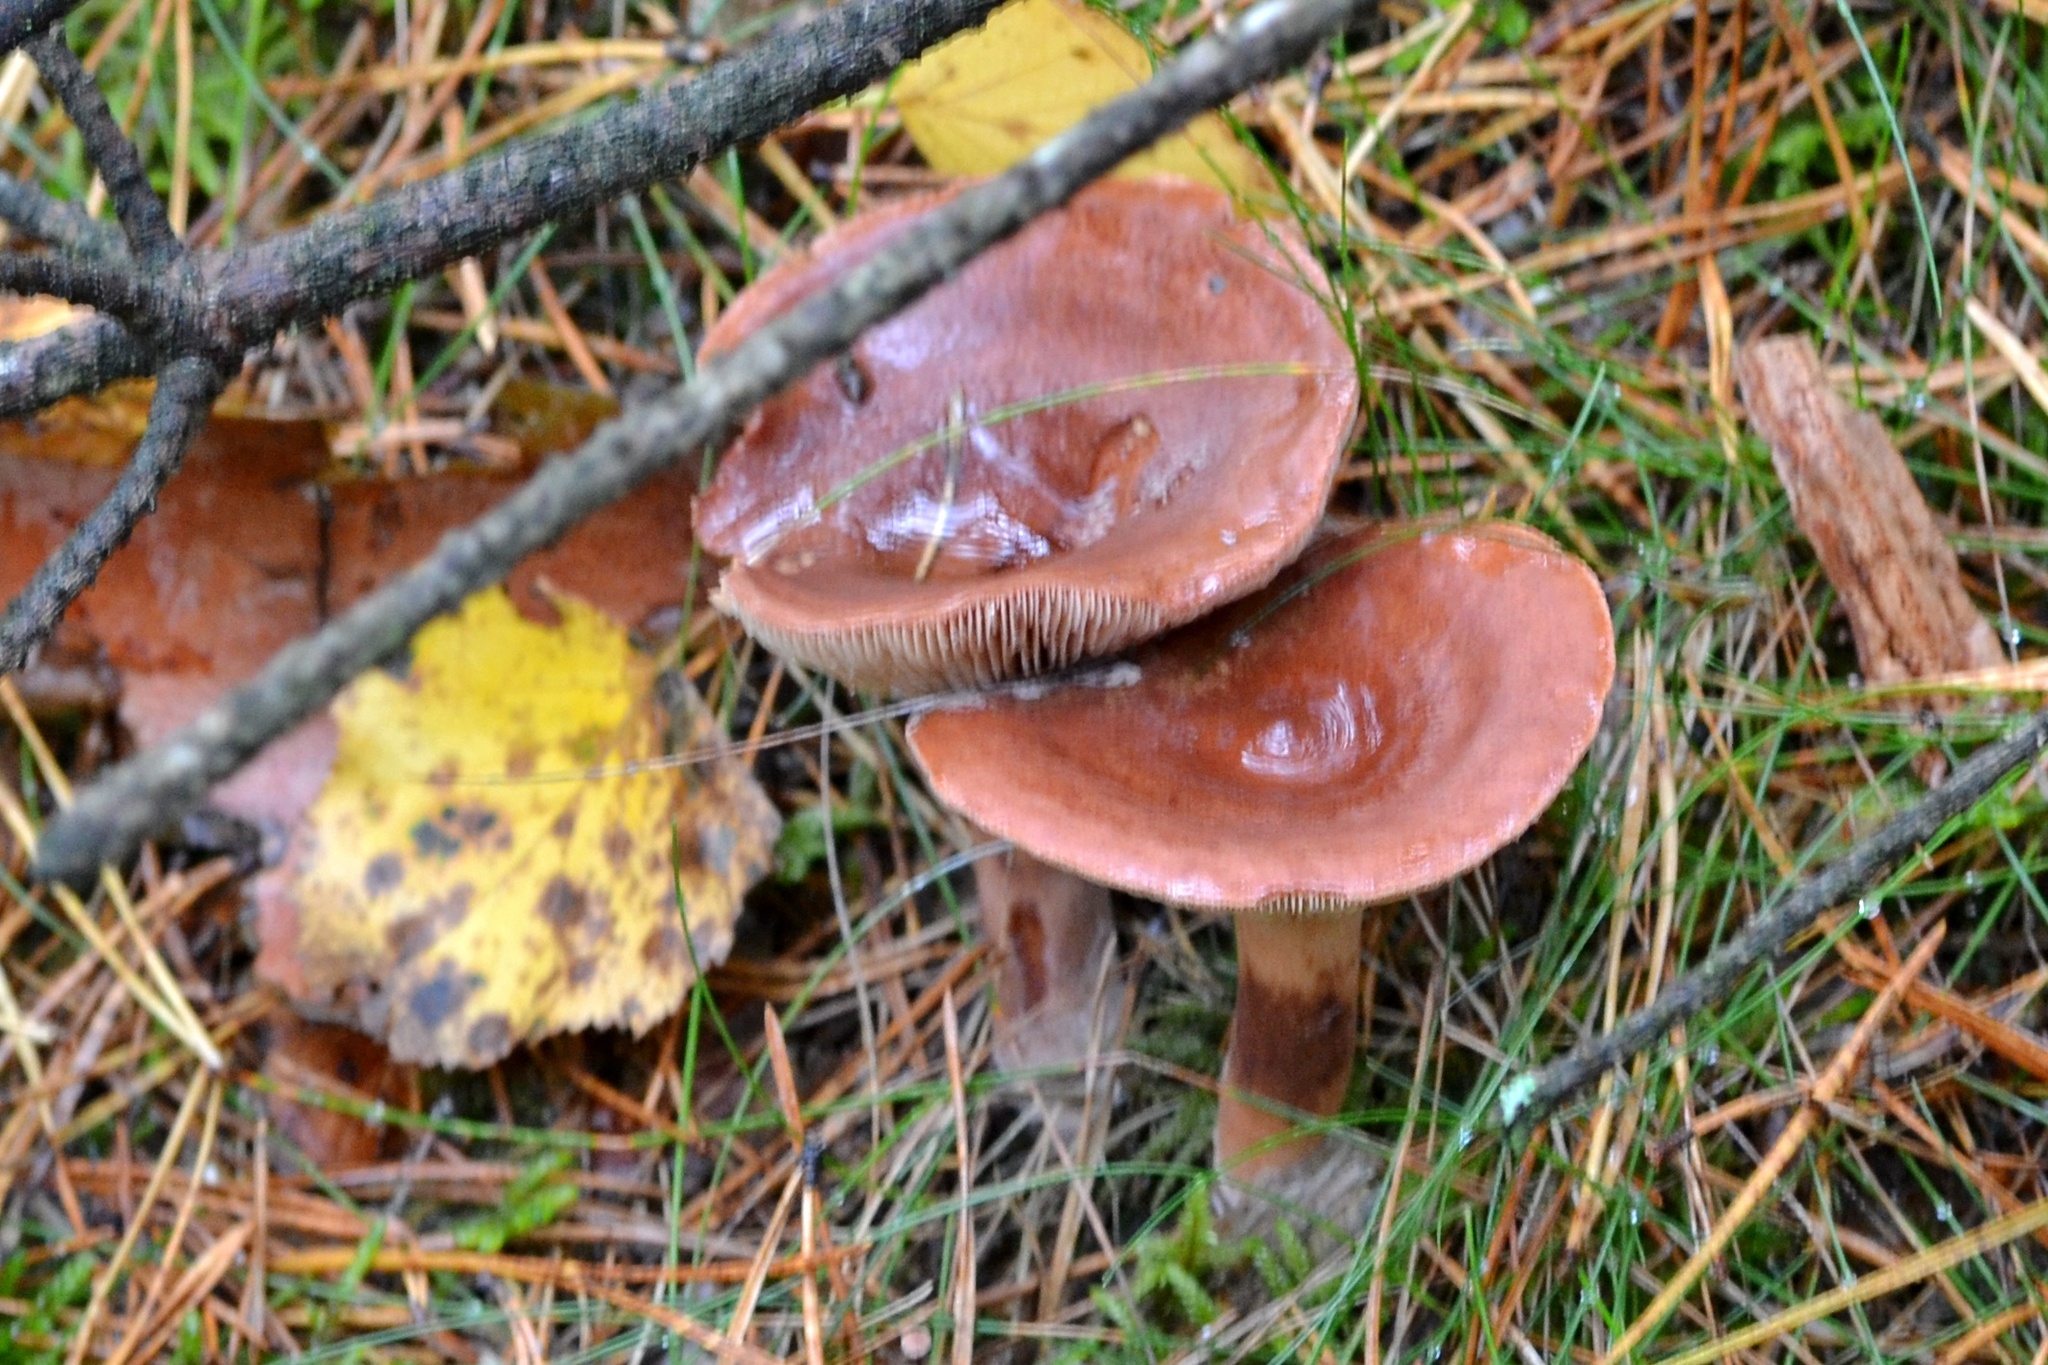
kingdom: Fungi
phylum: Basidiomycota
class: Agaricomycetes
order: Russulales
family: Russulaceae
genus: Lactarius
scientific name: Lactarius rufus
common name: Rufous milk-cap
